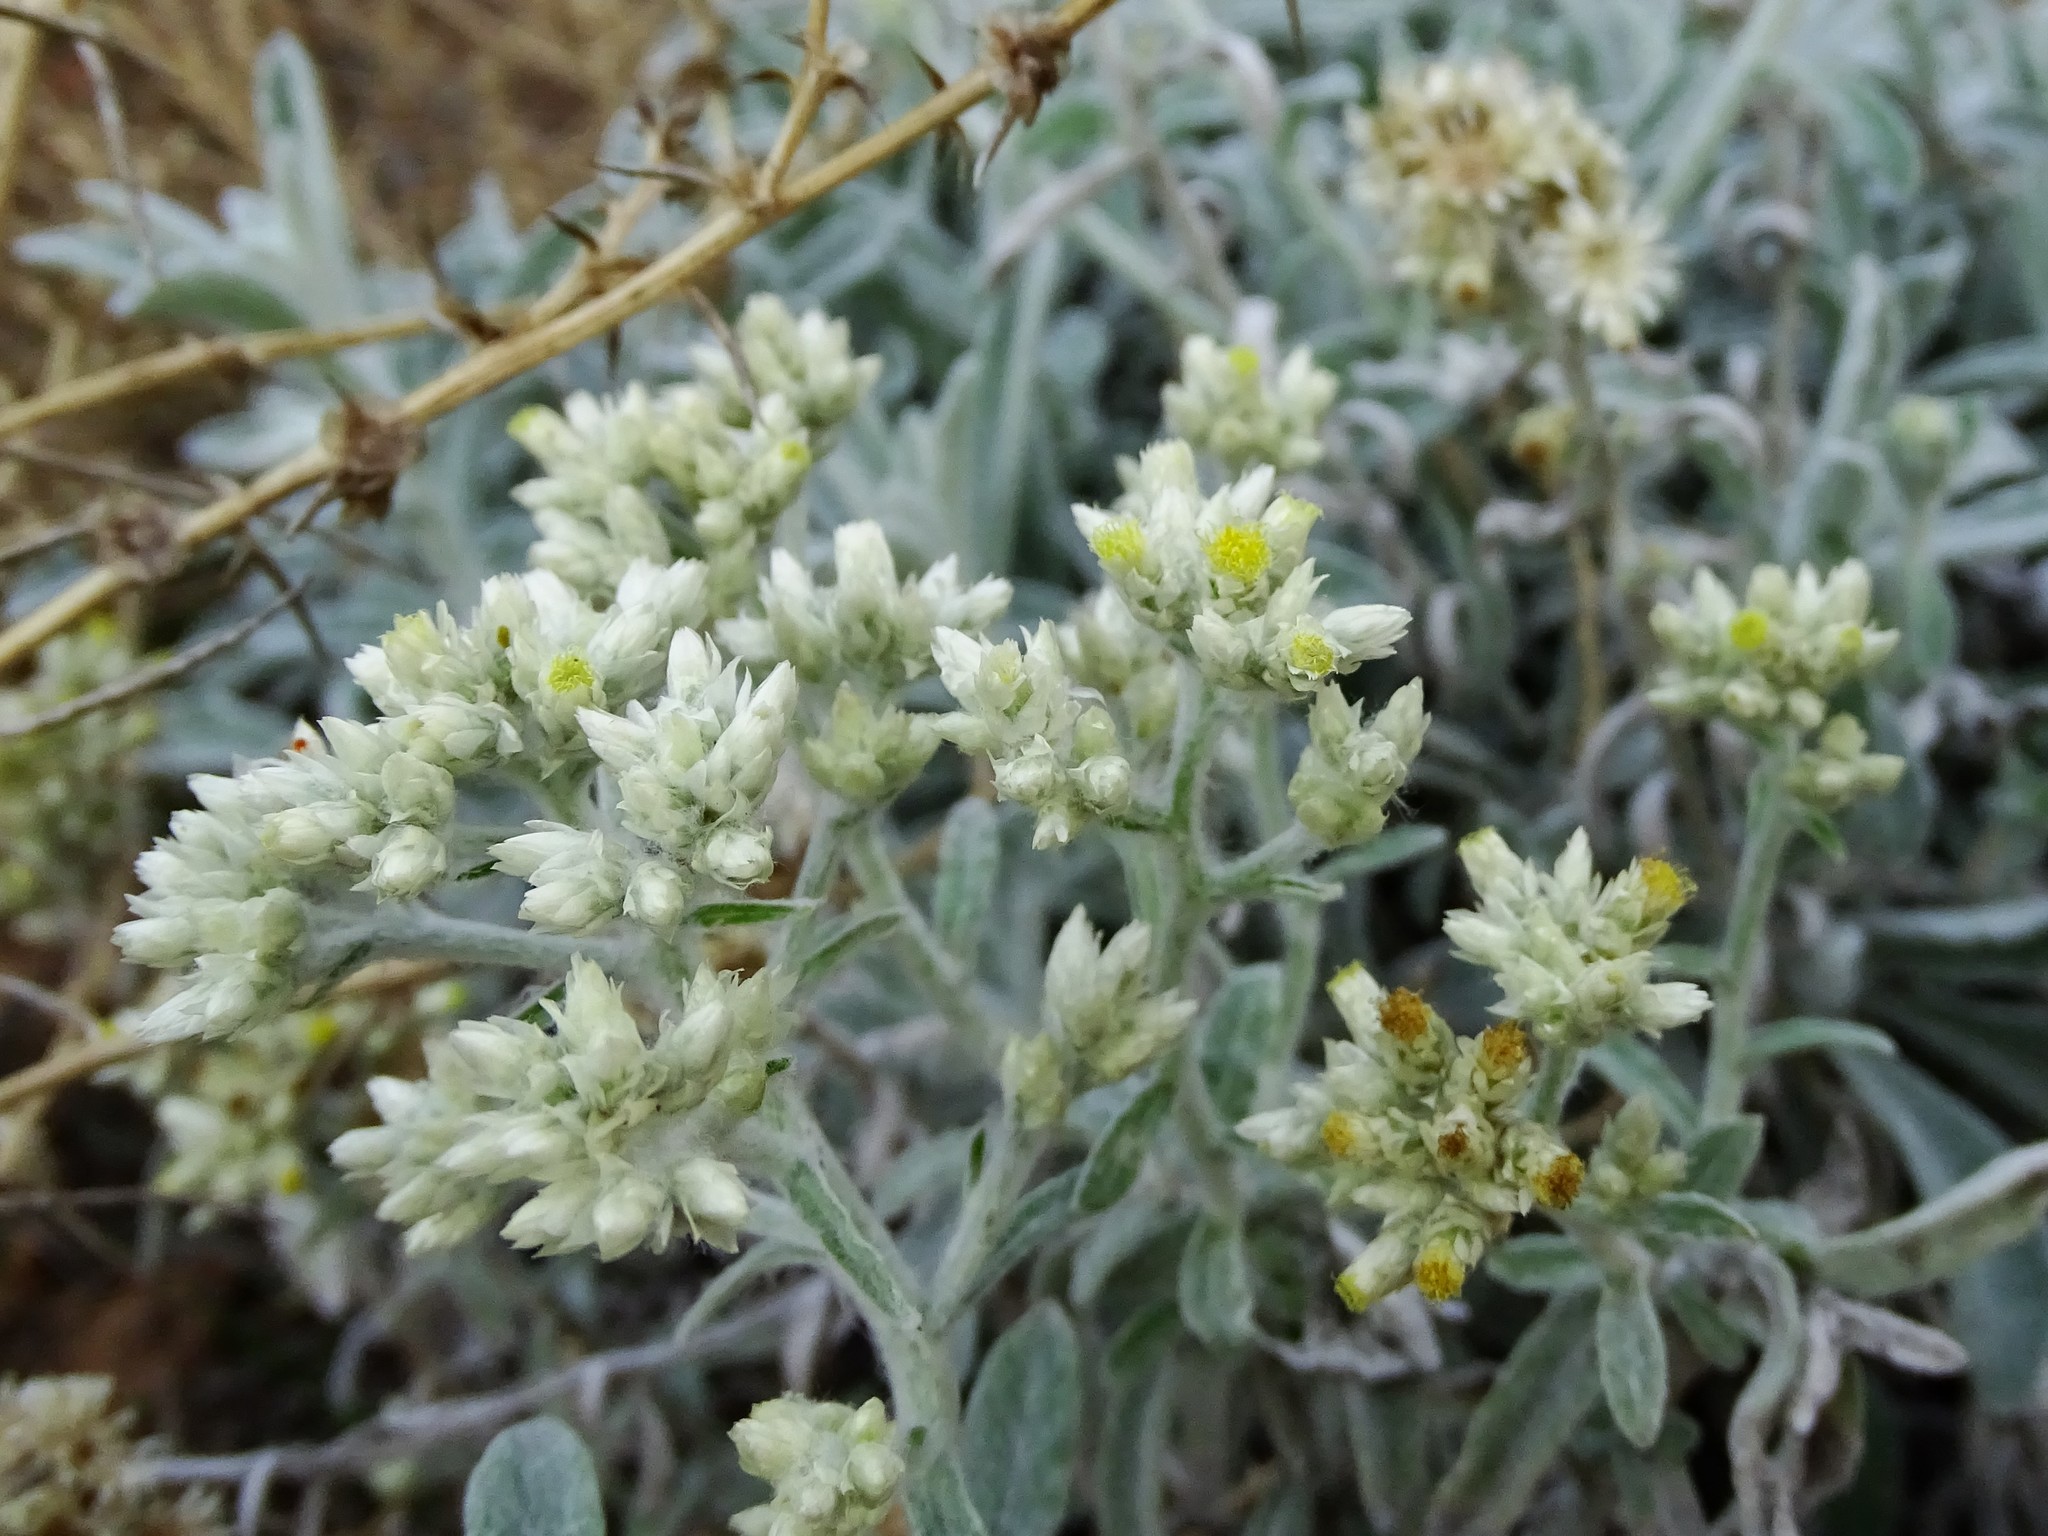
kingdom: Plantae
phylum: Tracheophyta
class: Magnoliopsida
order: Asterales
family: Asteraceae
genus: Pseudognaphalium
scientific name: Pseudognaphalium microcephalum
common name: San diego rabbit-tobacco
